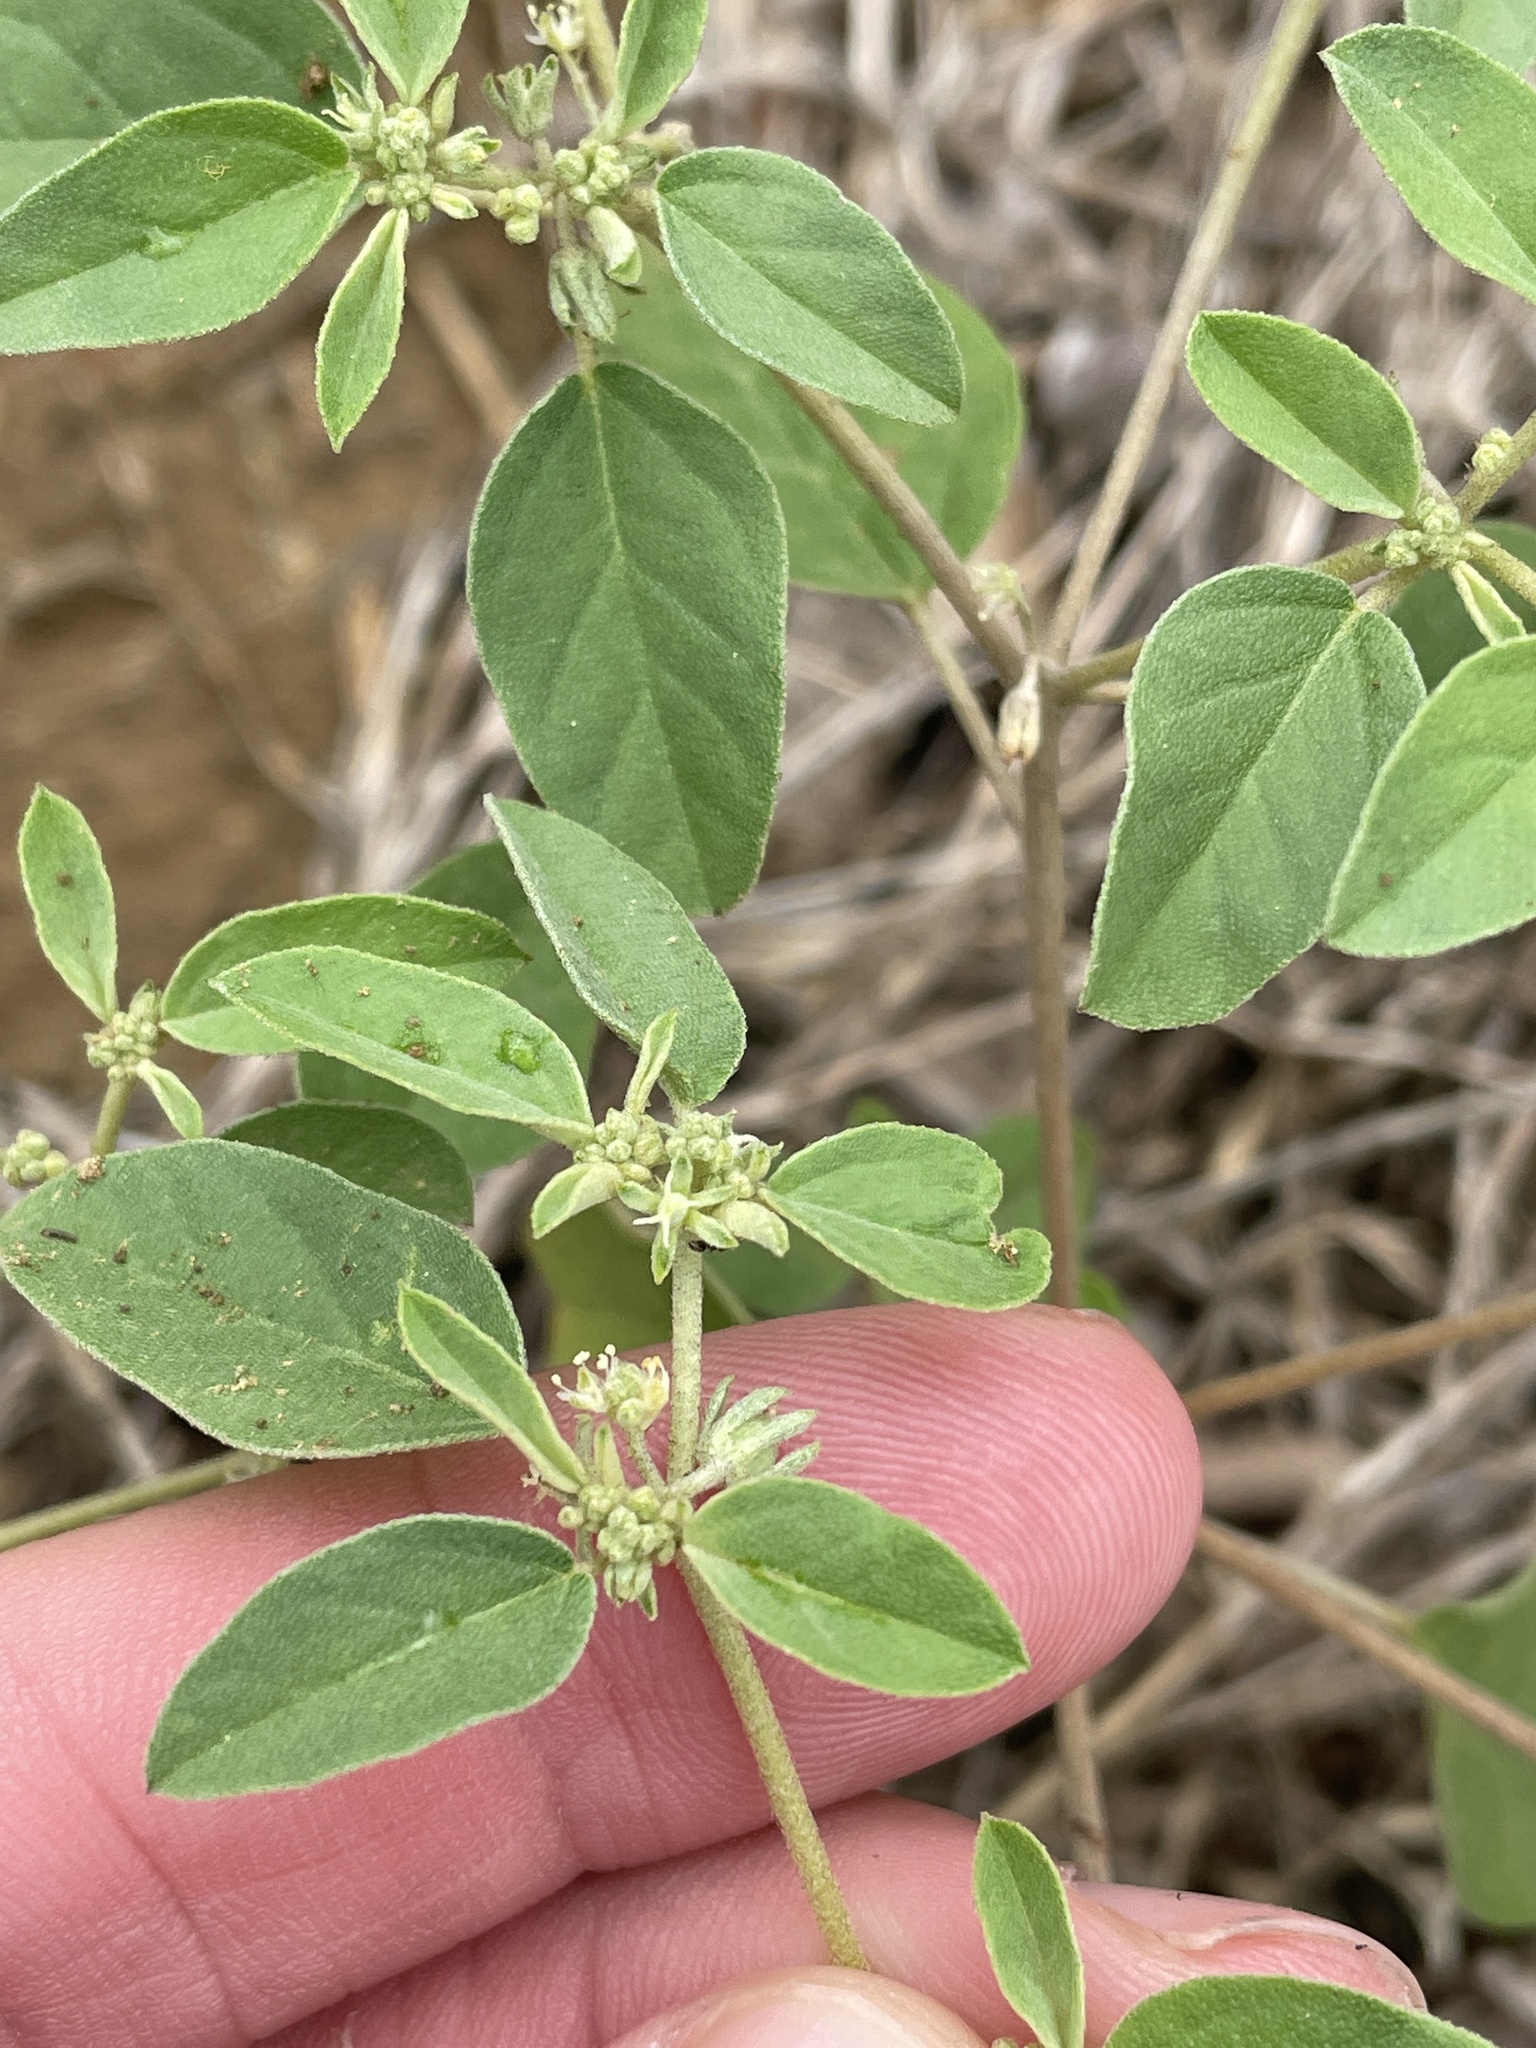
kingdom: Plantae
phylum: Tracheophyta
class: Magnoliopsida
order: Malpighiales
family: Euphorbiaceae
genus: Croton
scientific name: Croton monanthogynus
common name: One-seed croton
